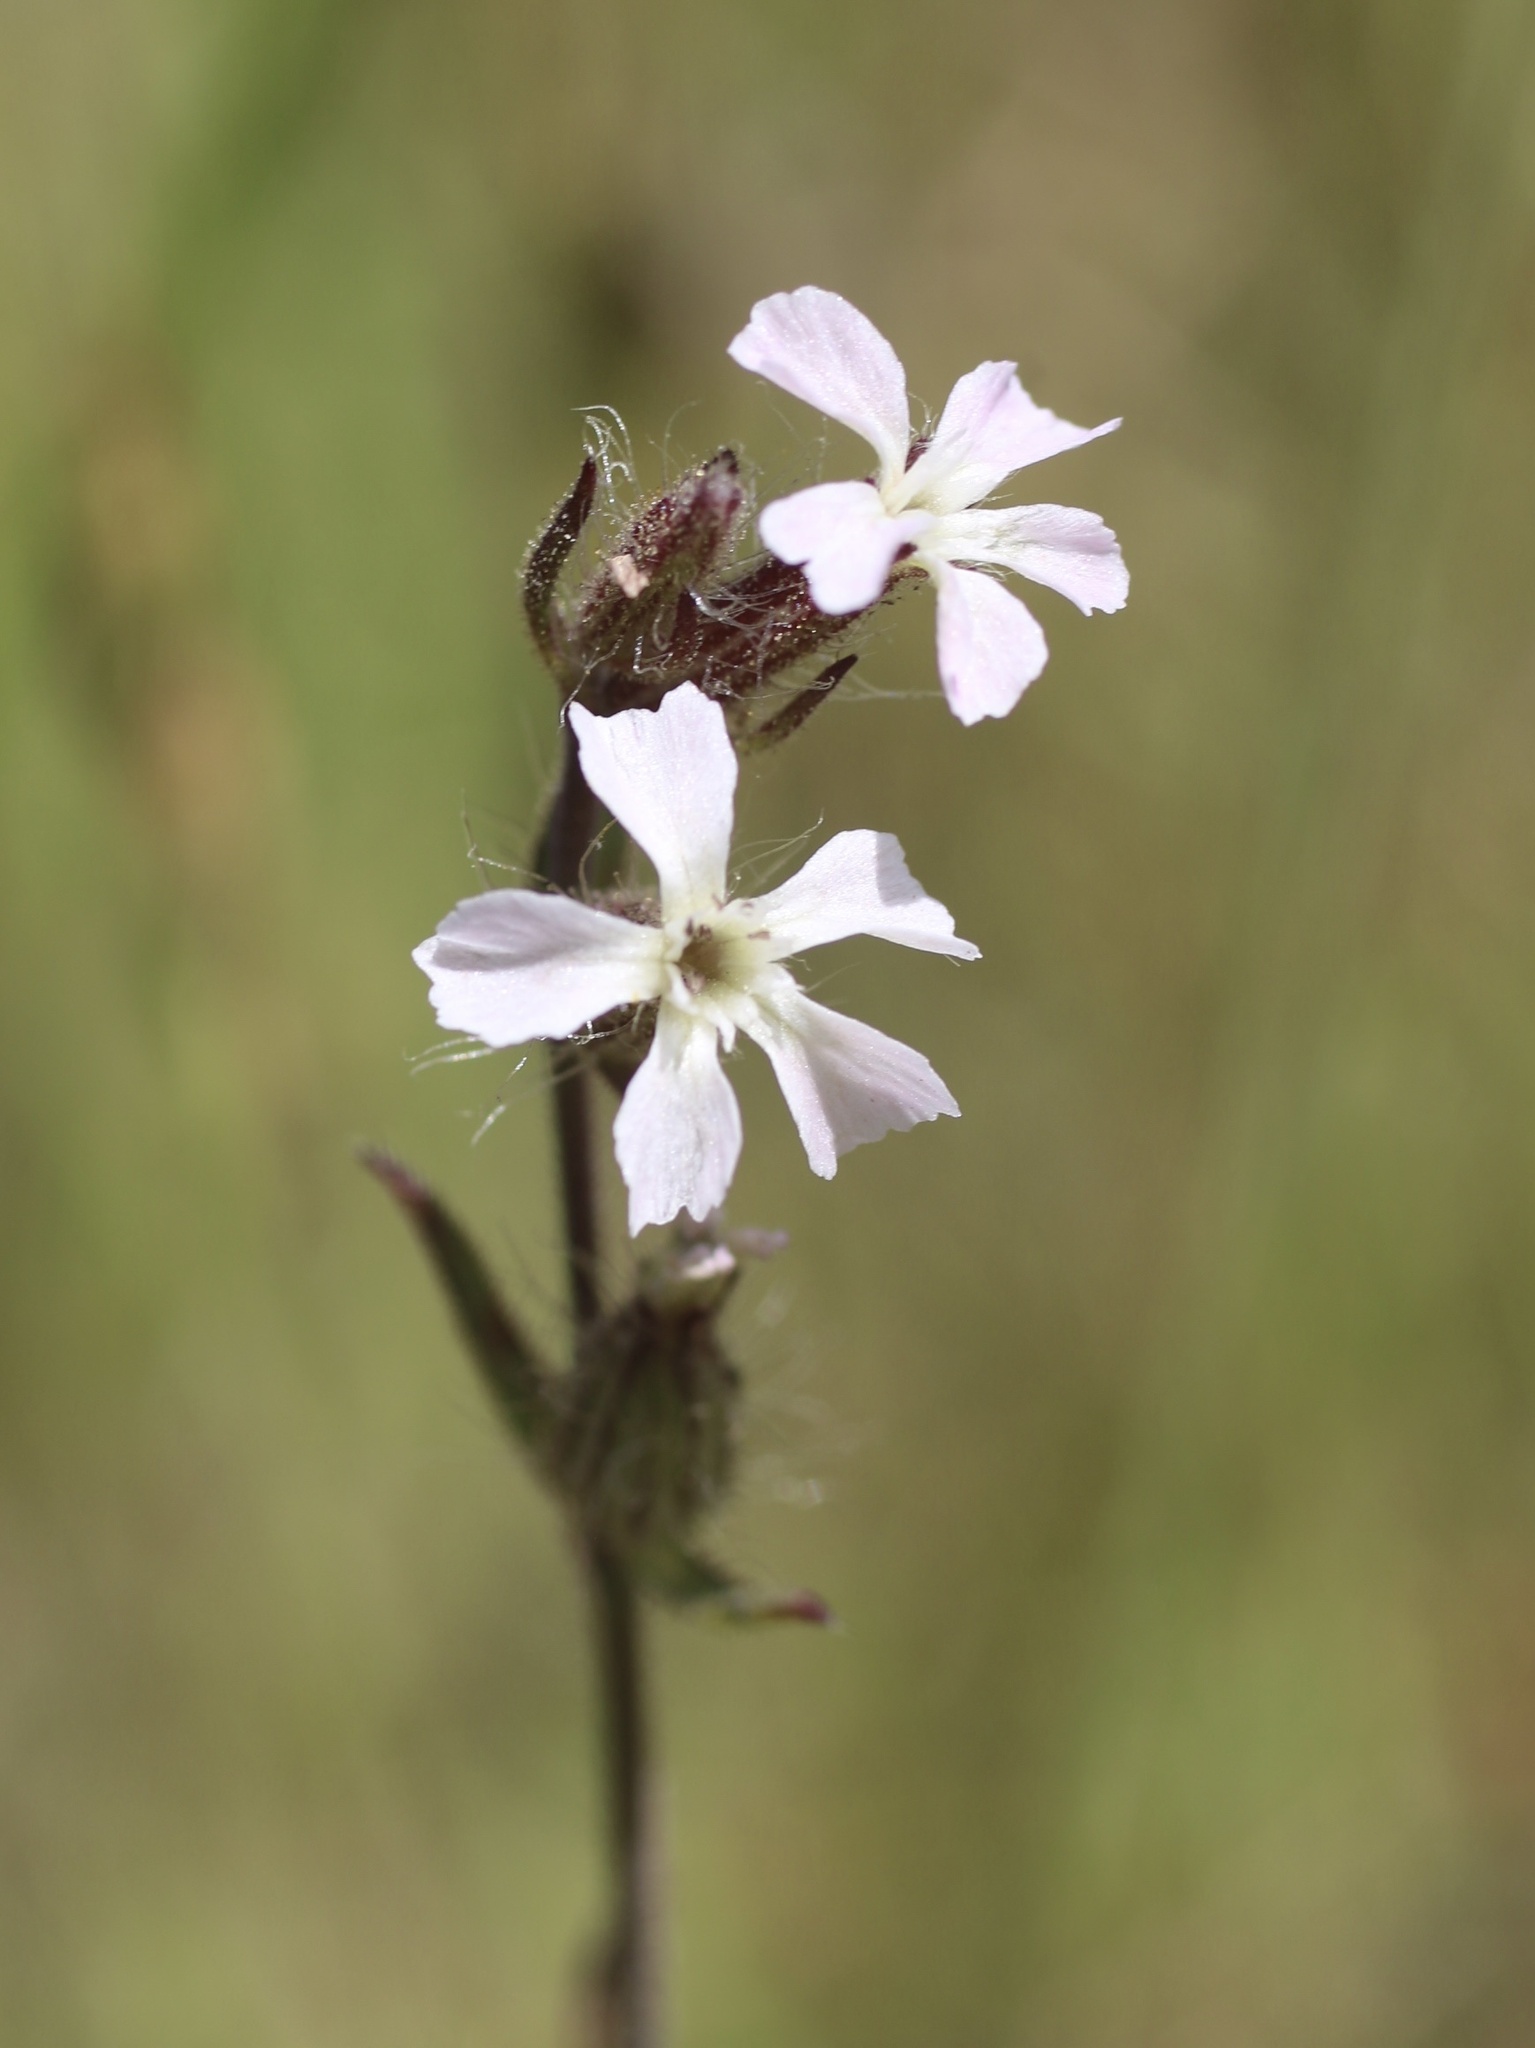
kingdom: Plantae
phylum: Tracheophyta
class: Magnoliopsida
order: Caryophyllales
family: Caryophyllaceae
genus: Silene
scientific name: Silene gallica
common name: Small-flowered catchfly
